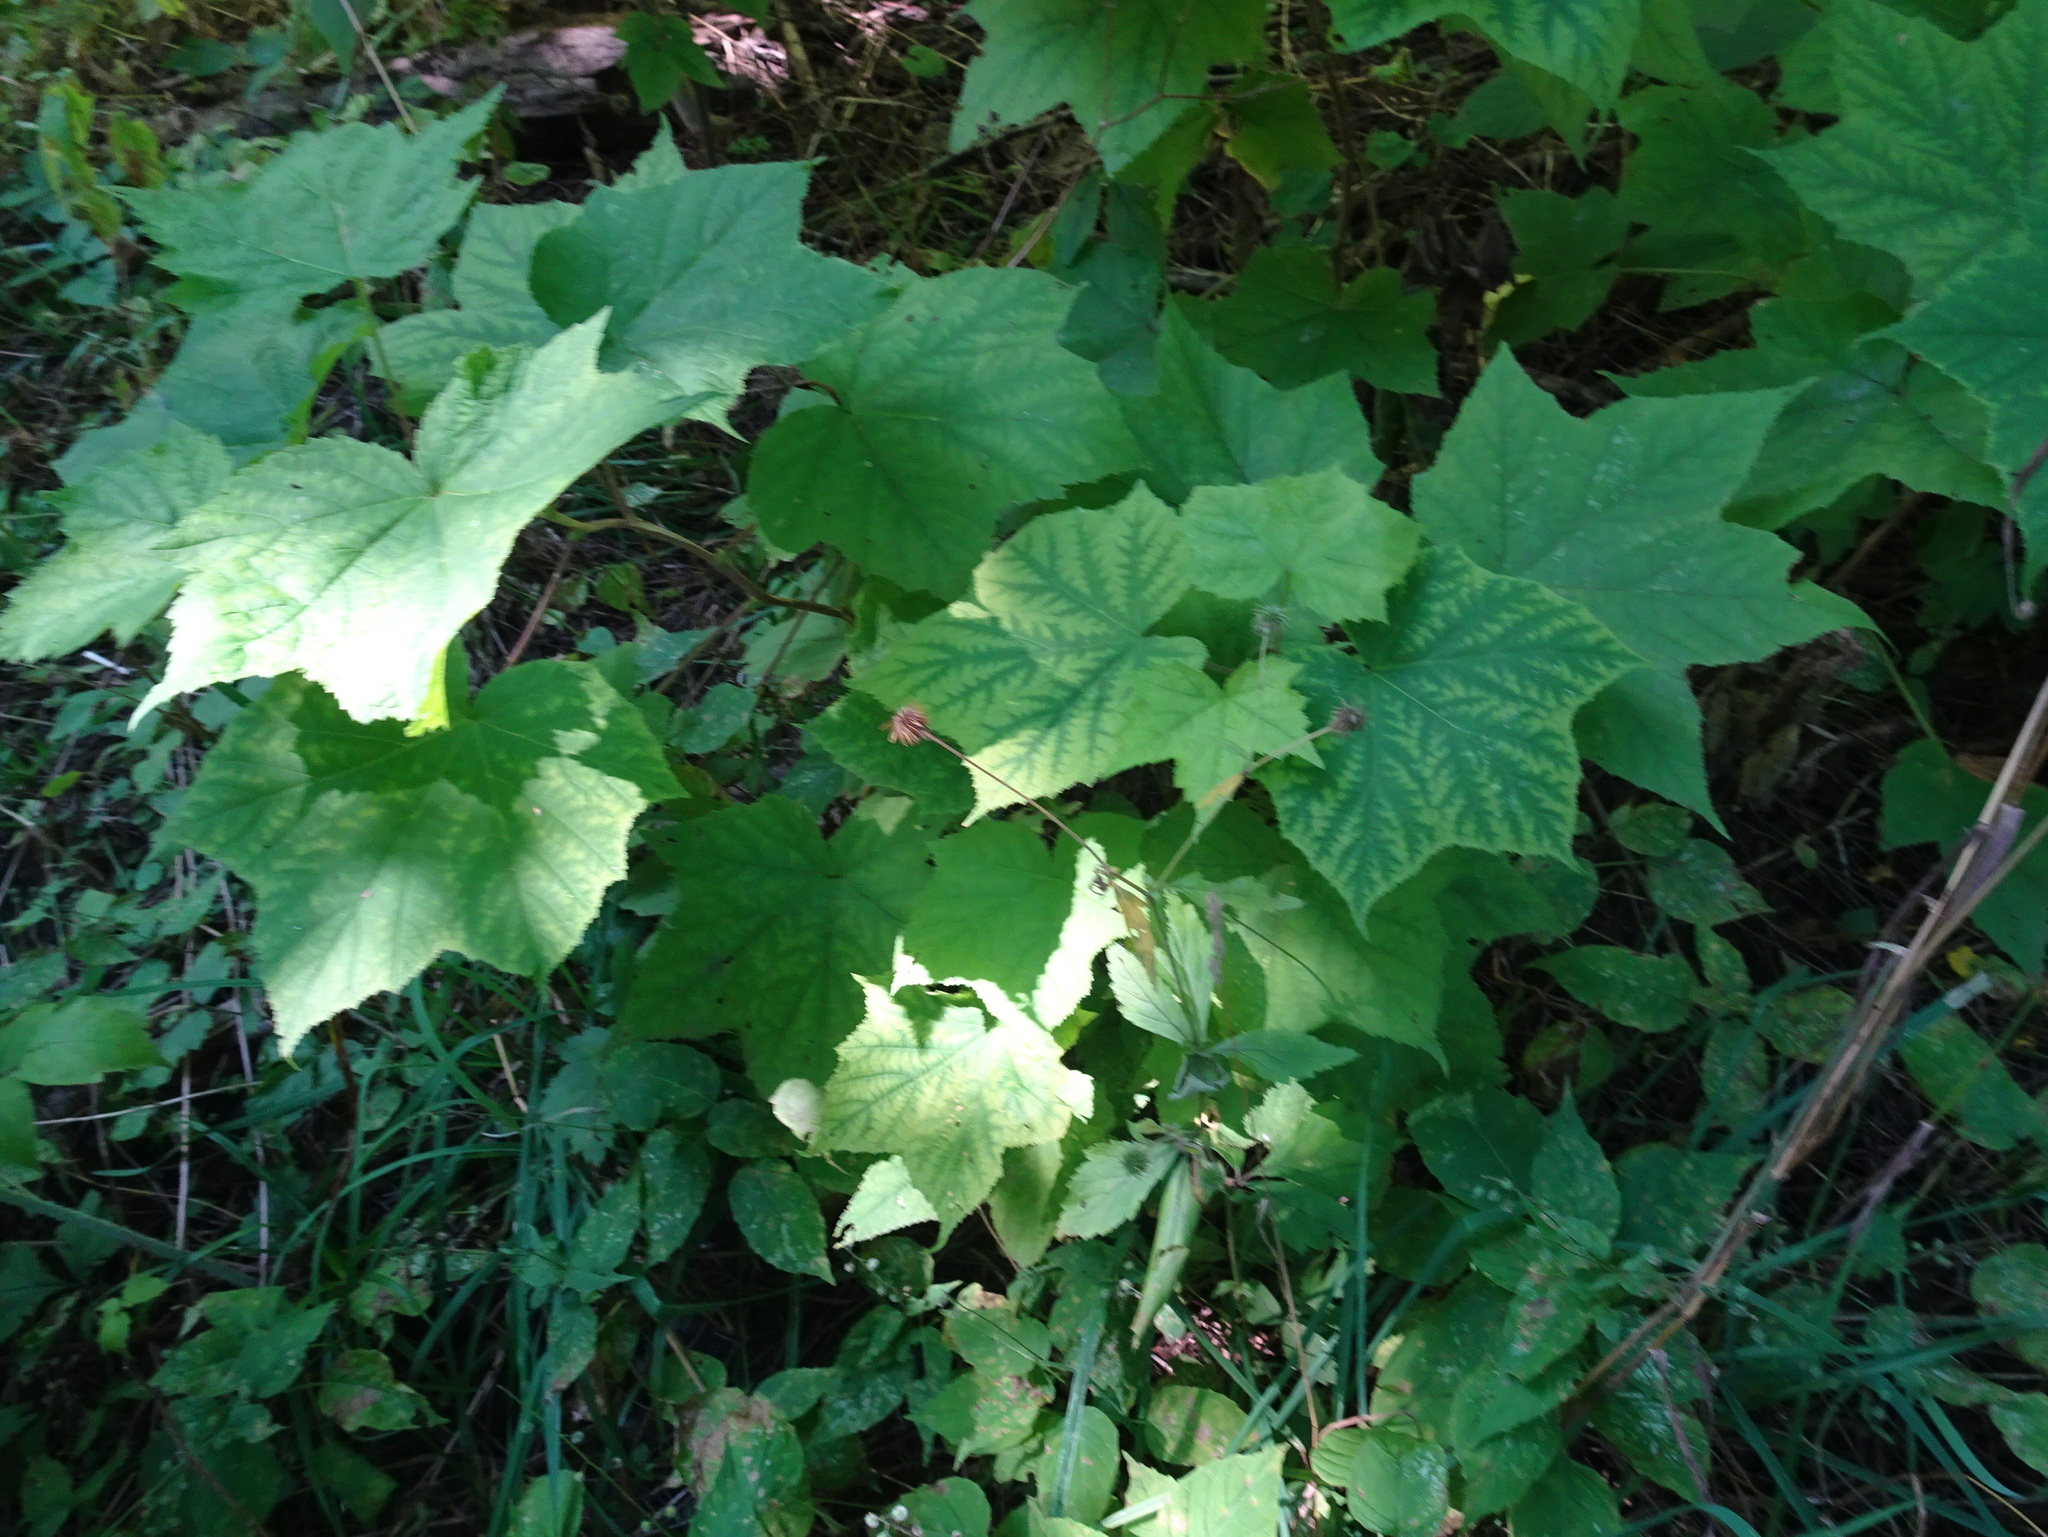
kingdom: Plantae
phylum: Tracheophyta
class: Magnoliopsida
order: Rosales
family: Rosaceae
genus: Rubus
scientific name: Rubus odoratus
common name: Purple-flowered raspberry
